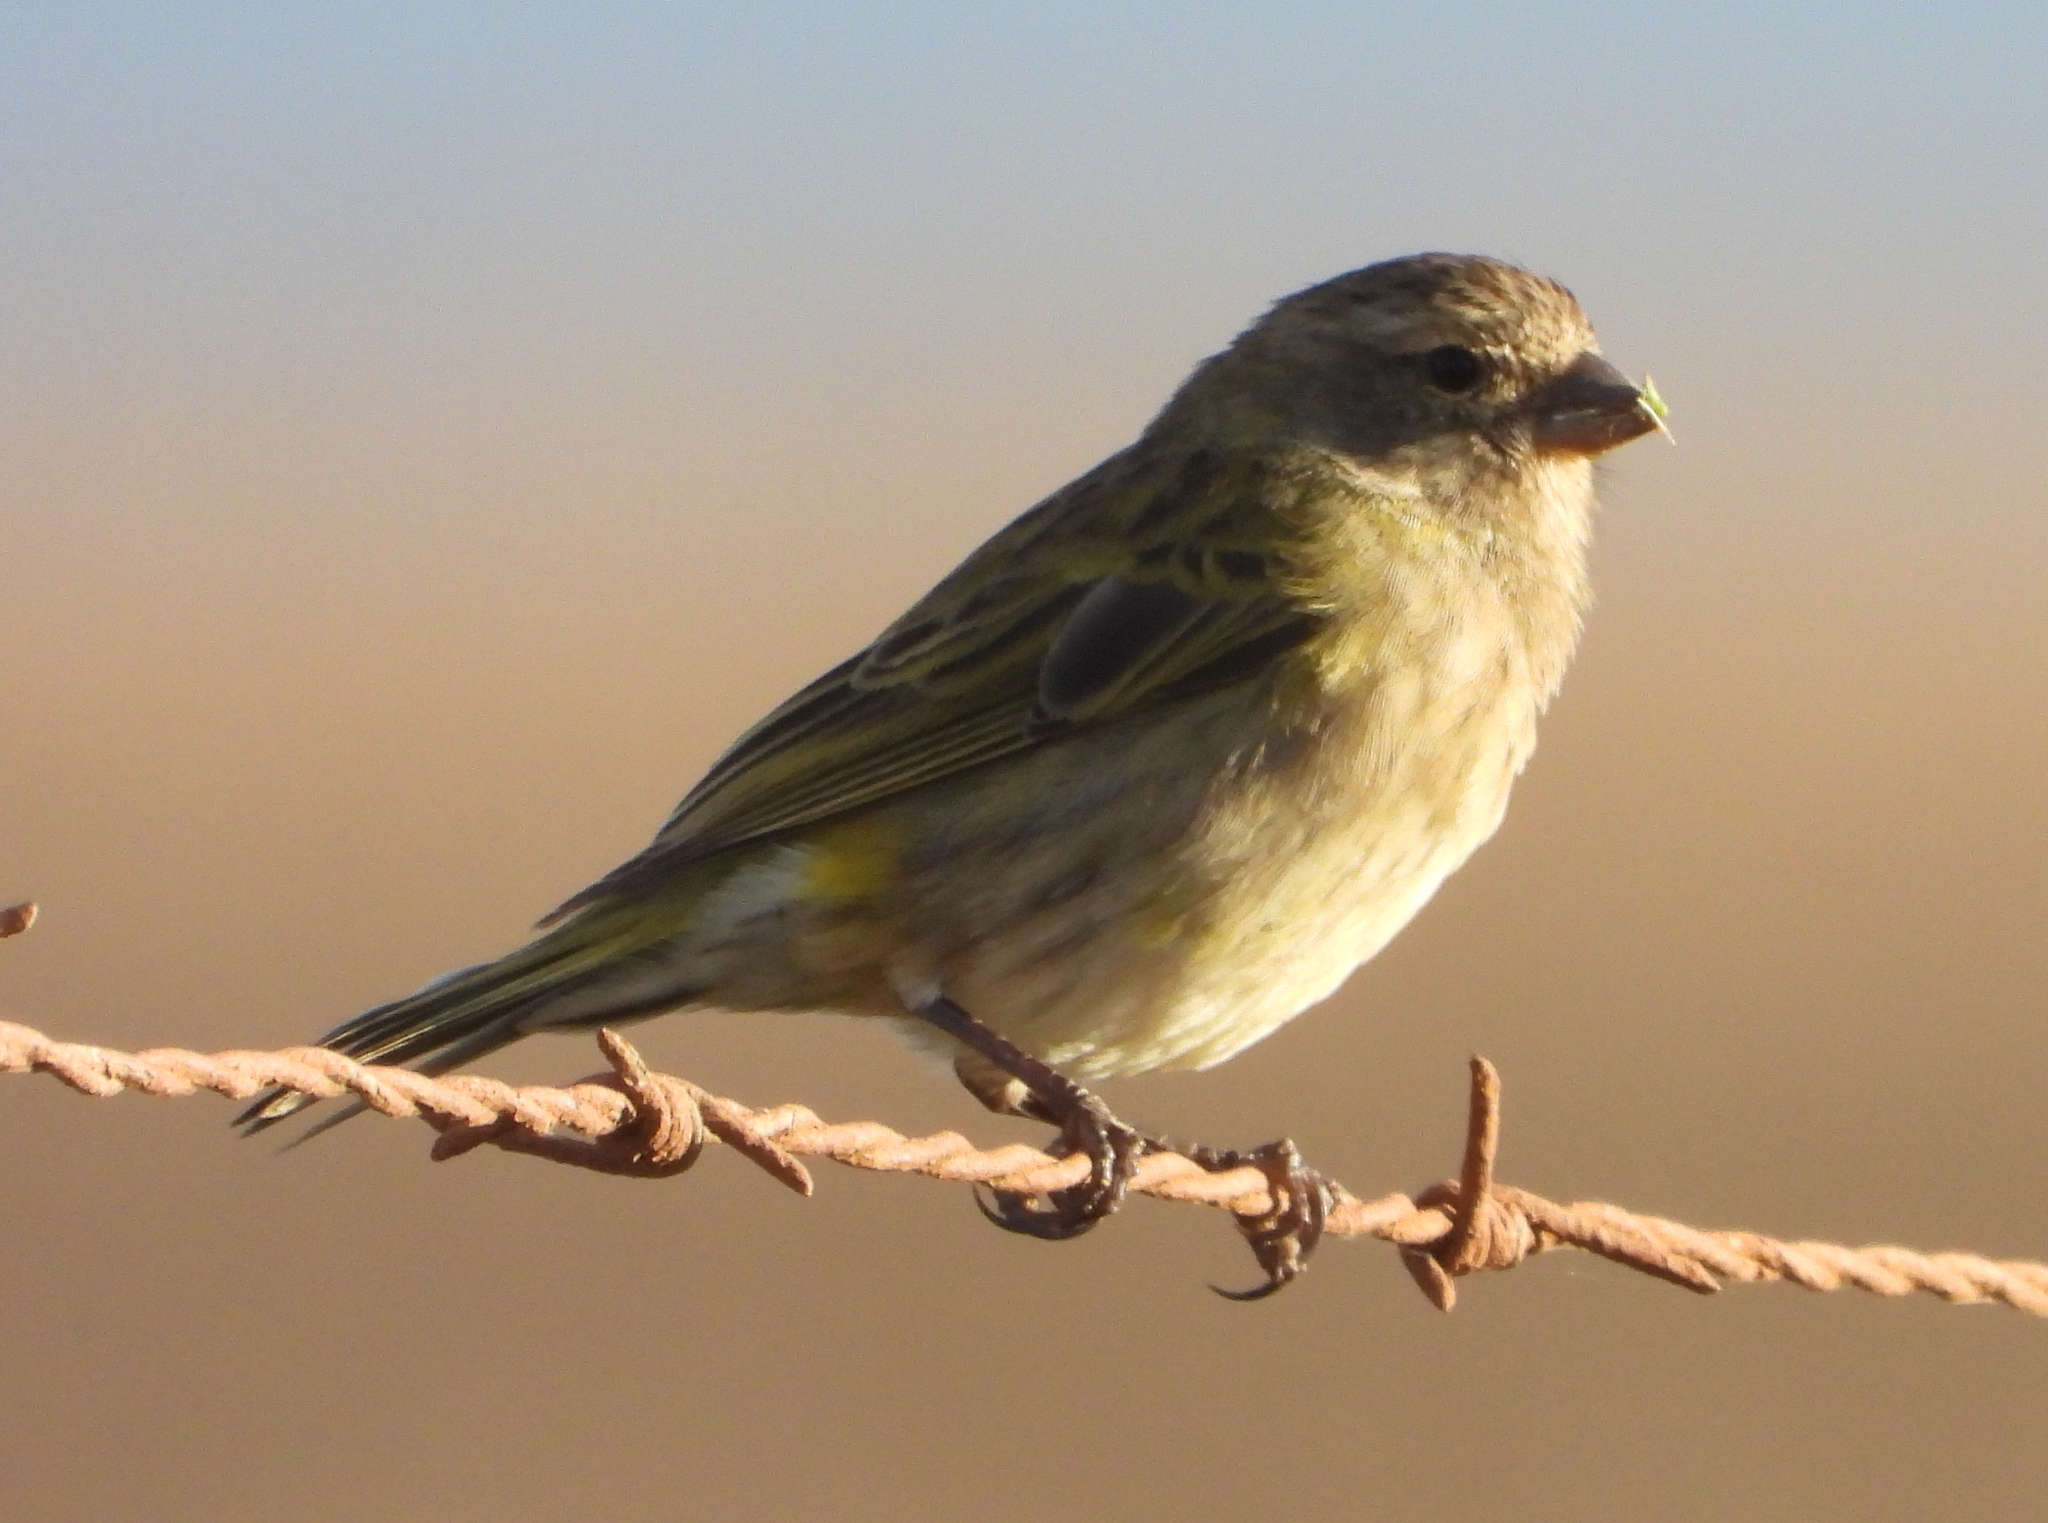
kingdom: Animalia
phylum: Chordata
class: Aves
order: Passeriformes
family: Fringillidae
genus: Crithagra
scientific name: Crithagra flaviventris
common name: Yellow canary
